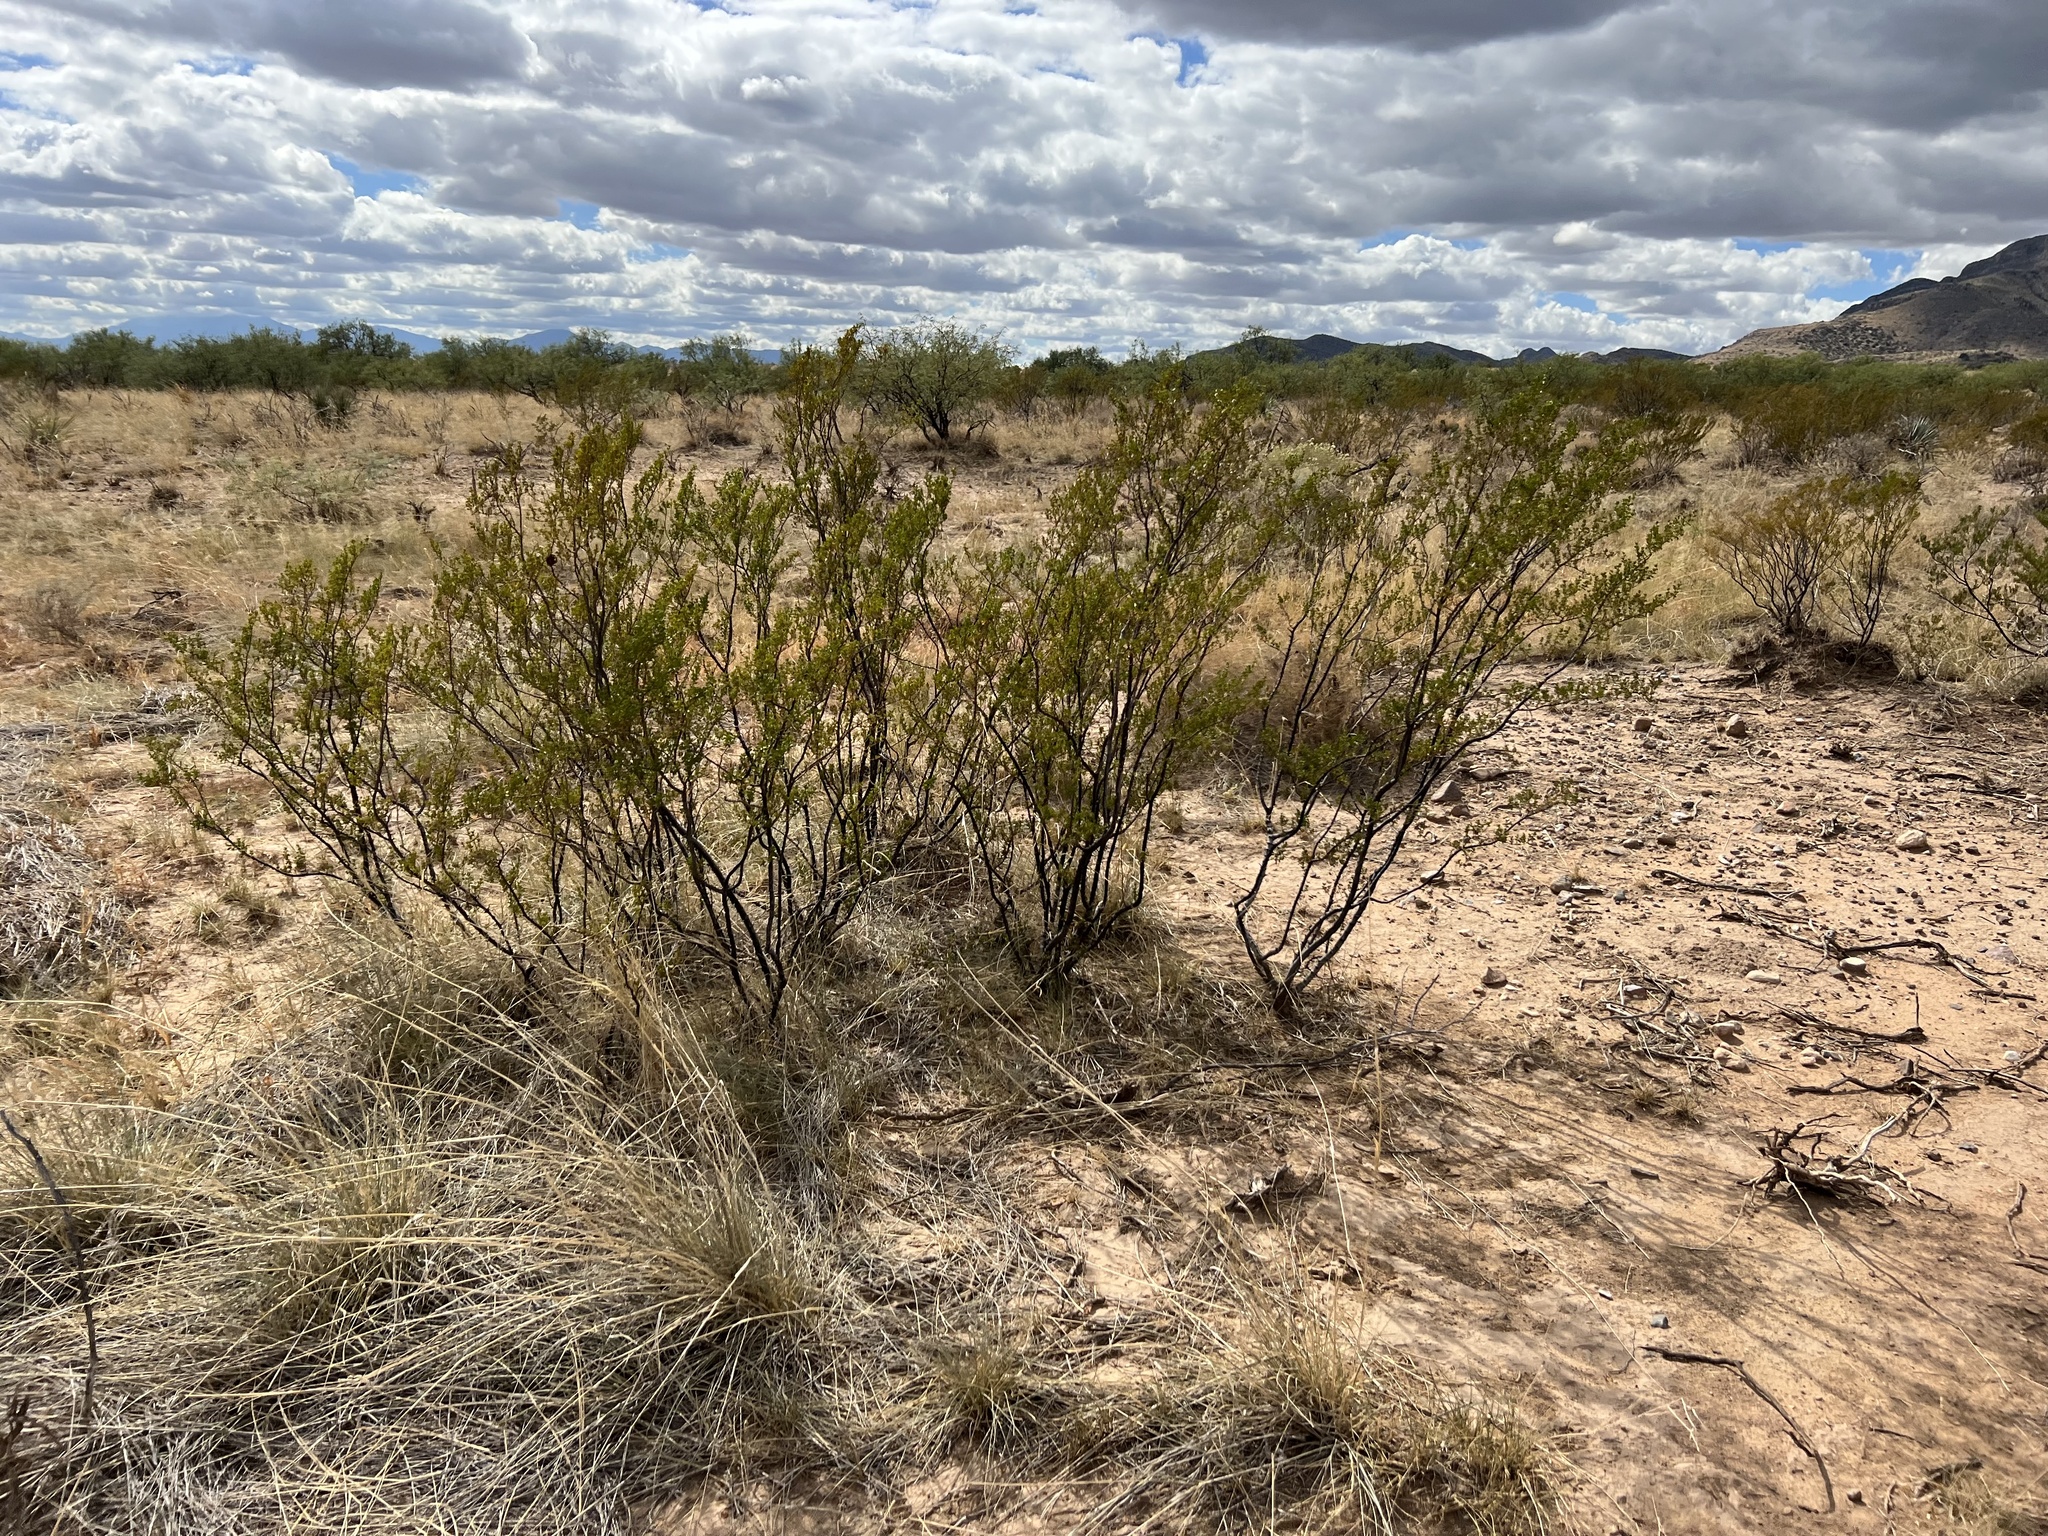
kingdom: Plantae
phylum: Tracheophyta
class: Magnoliopsida
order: Zygophyllales
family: Zygophyllaceae
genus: Larrea
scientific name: Larrea tridentata
